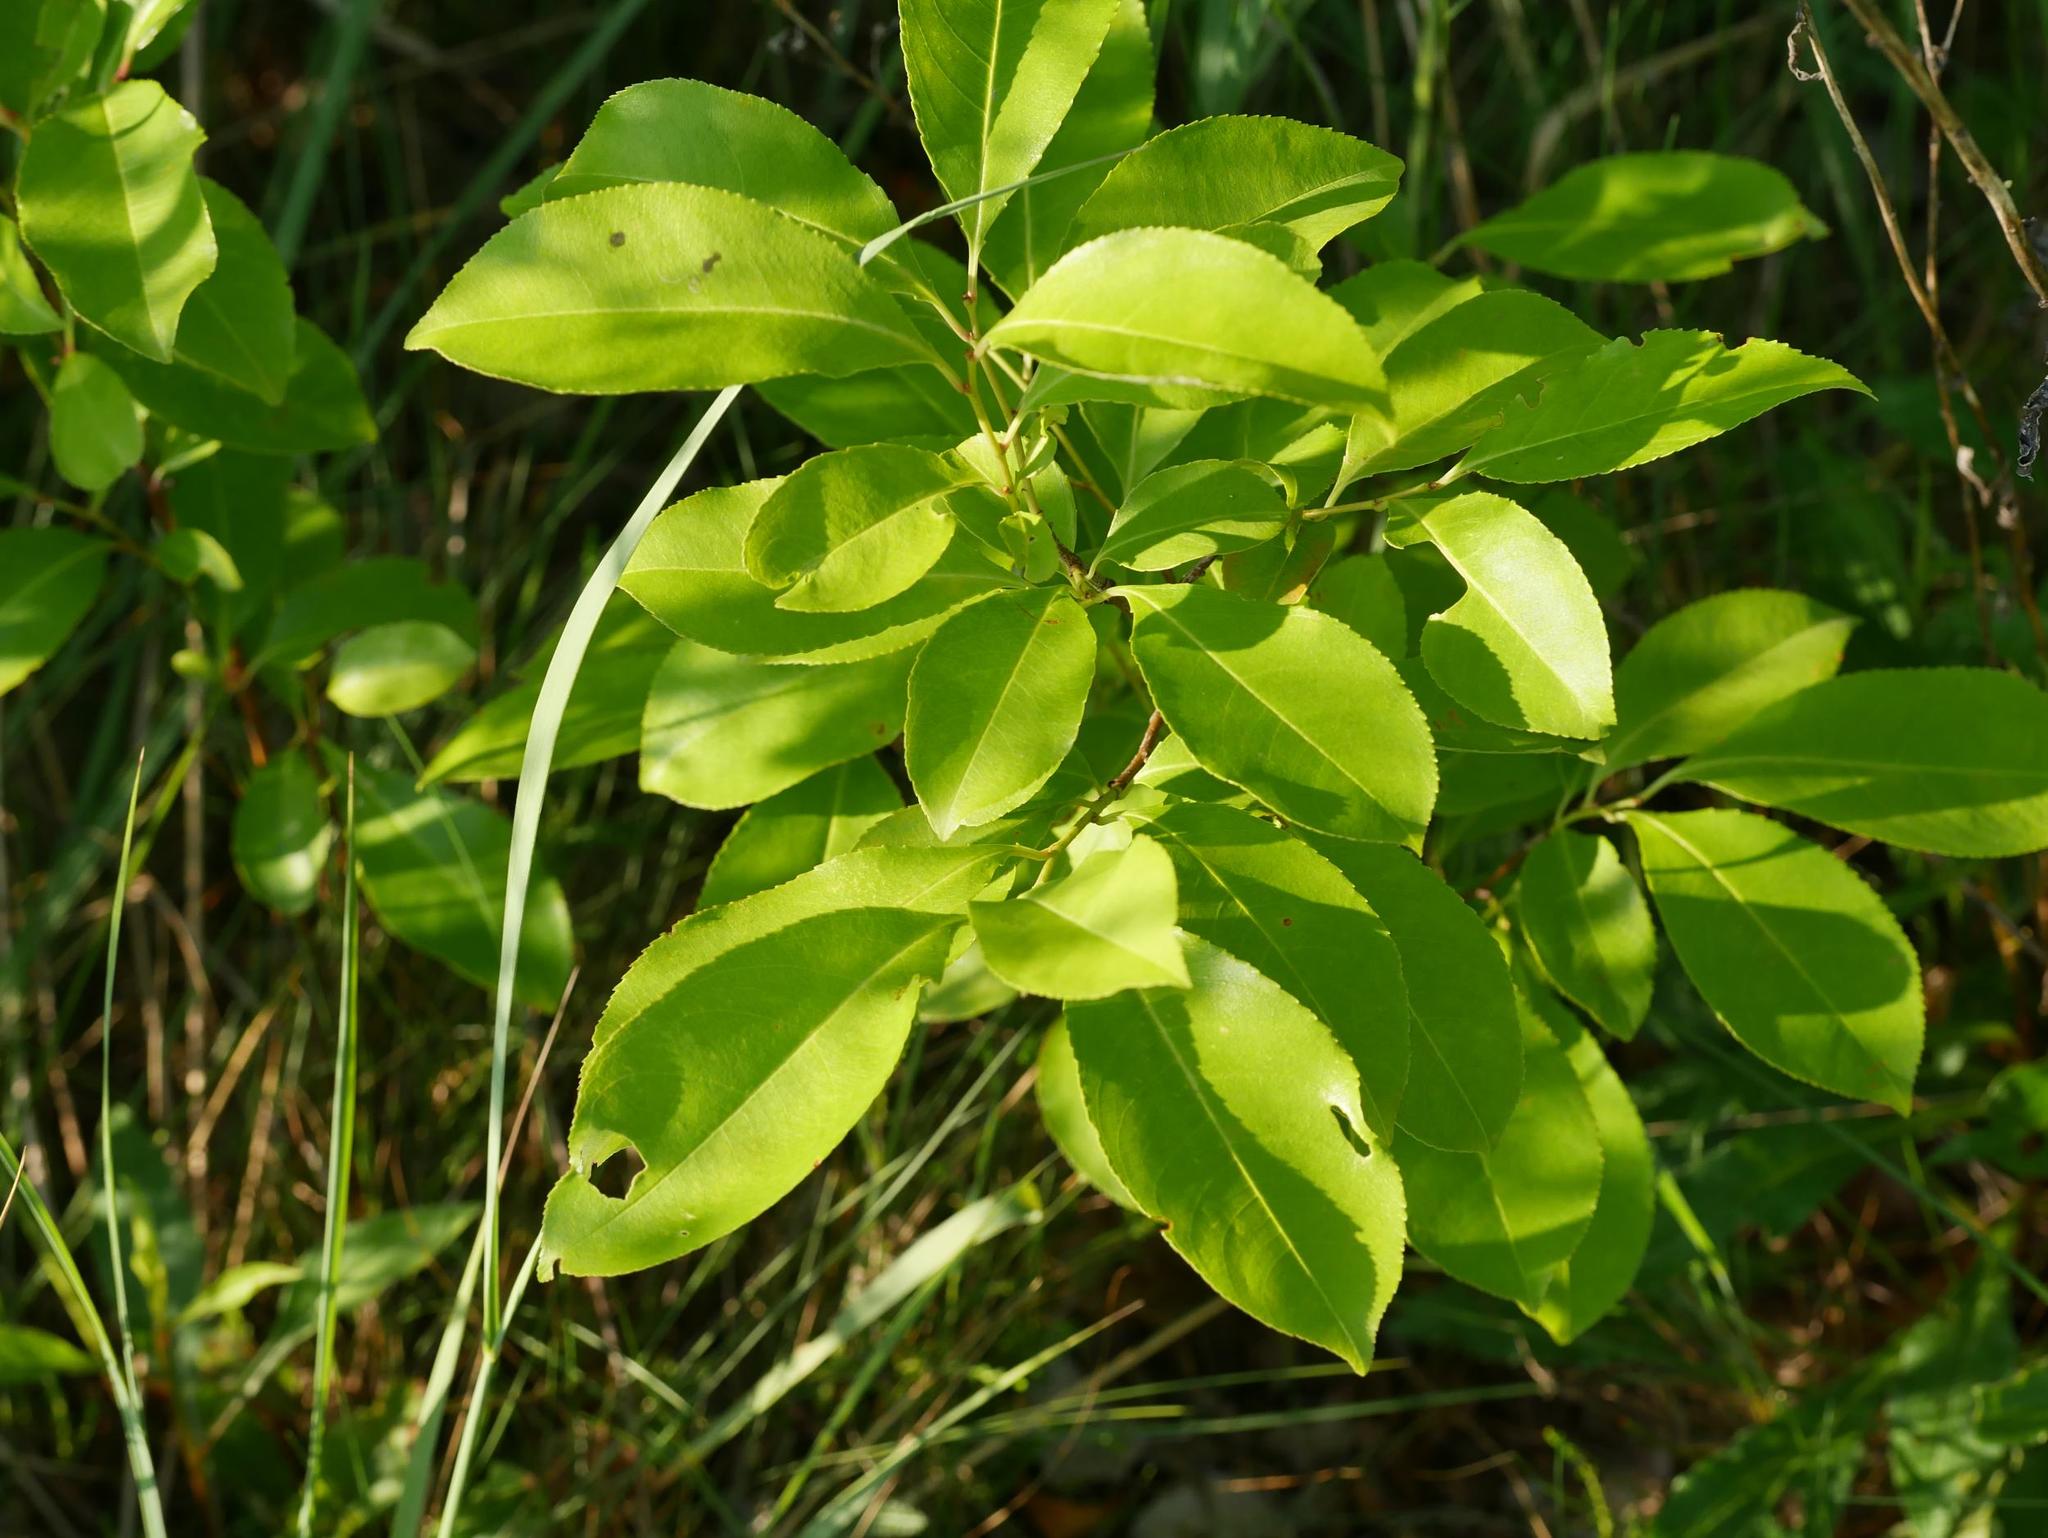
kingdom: Plantae
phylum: Tracheophyta
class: Magnoliopsida
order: Rosales
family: Rosaceae
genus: Prunus
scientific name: Prunus serotina
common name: Black cherry
